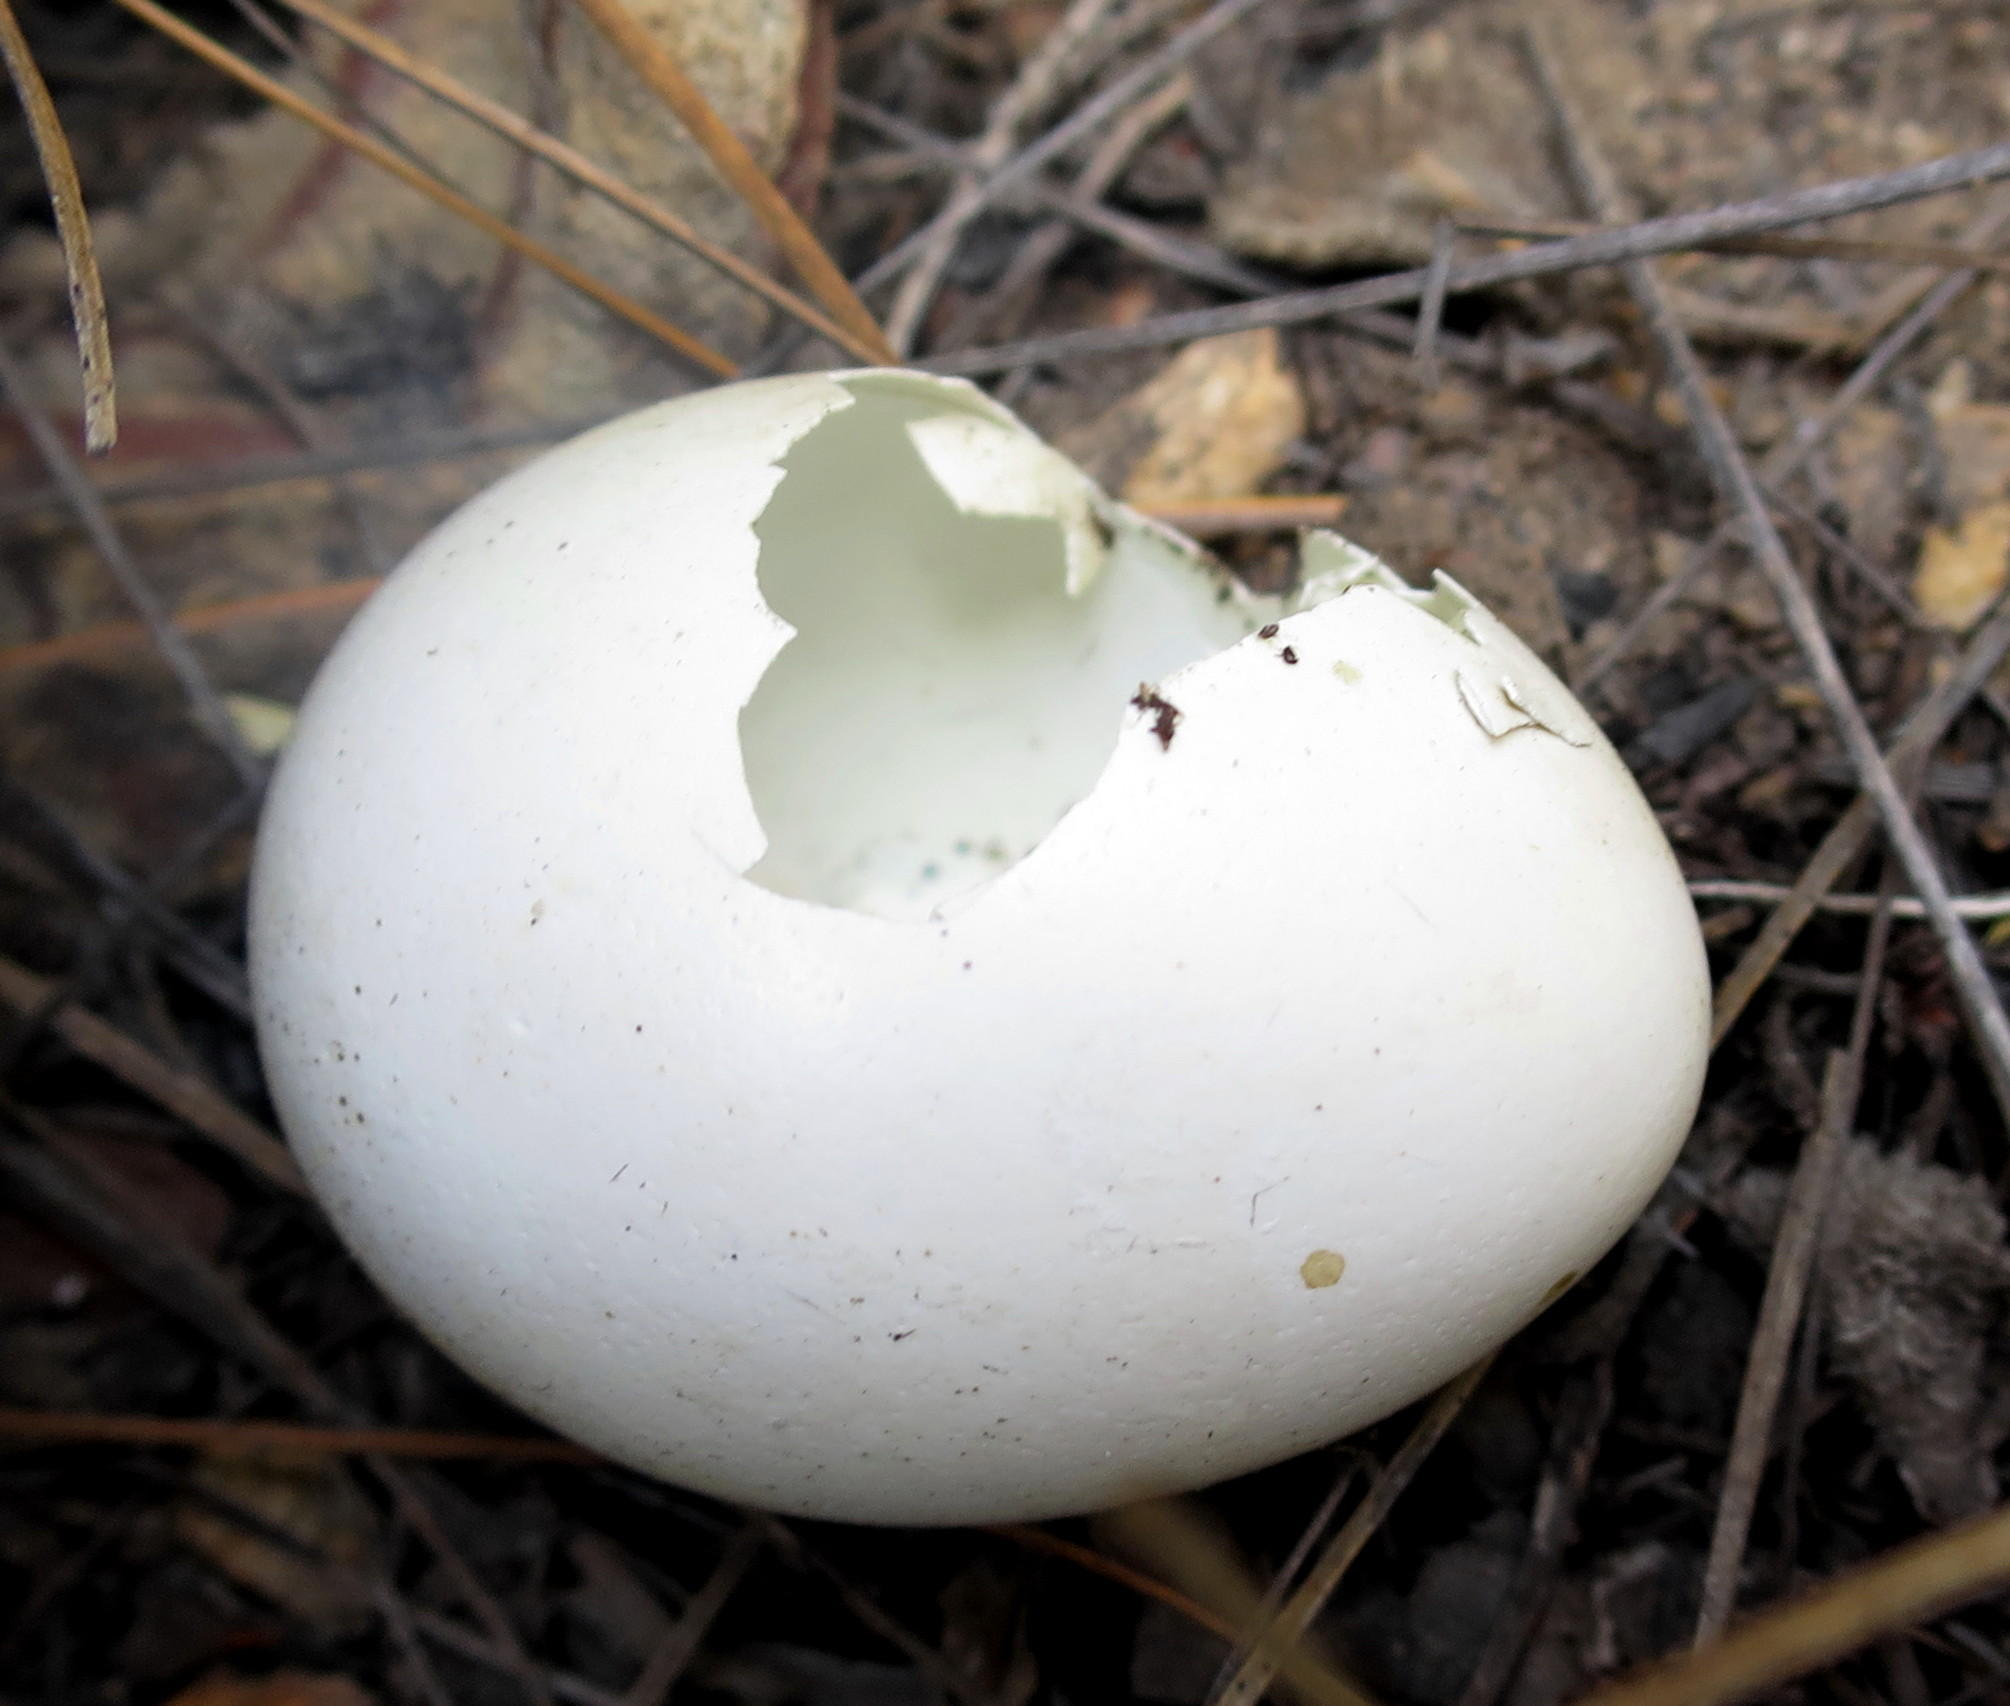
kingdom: Animalia
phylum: Chordata
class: Aves
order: Accipitriformes
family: Accipitridae
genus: Circus
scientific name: Circus maurus
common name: Black harrier
